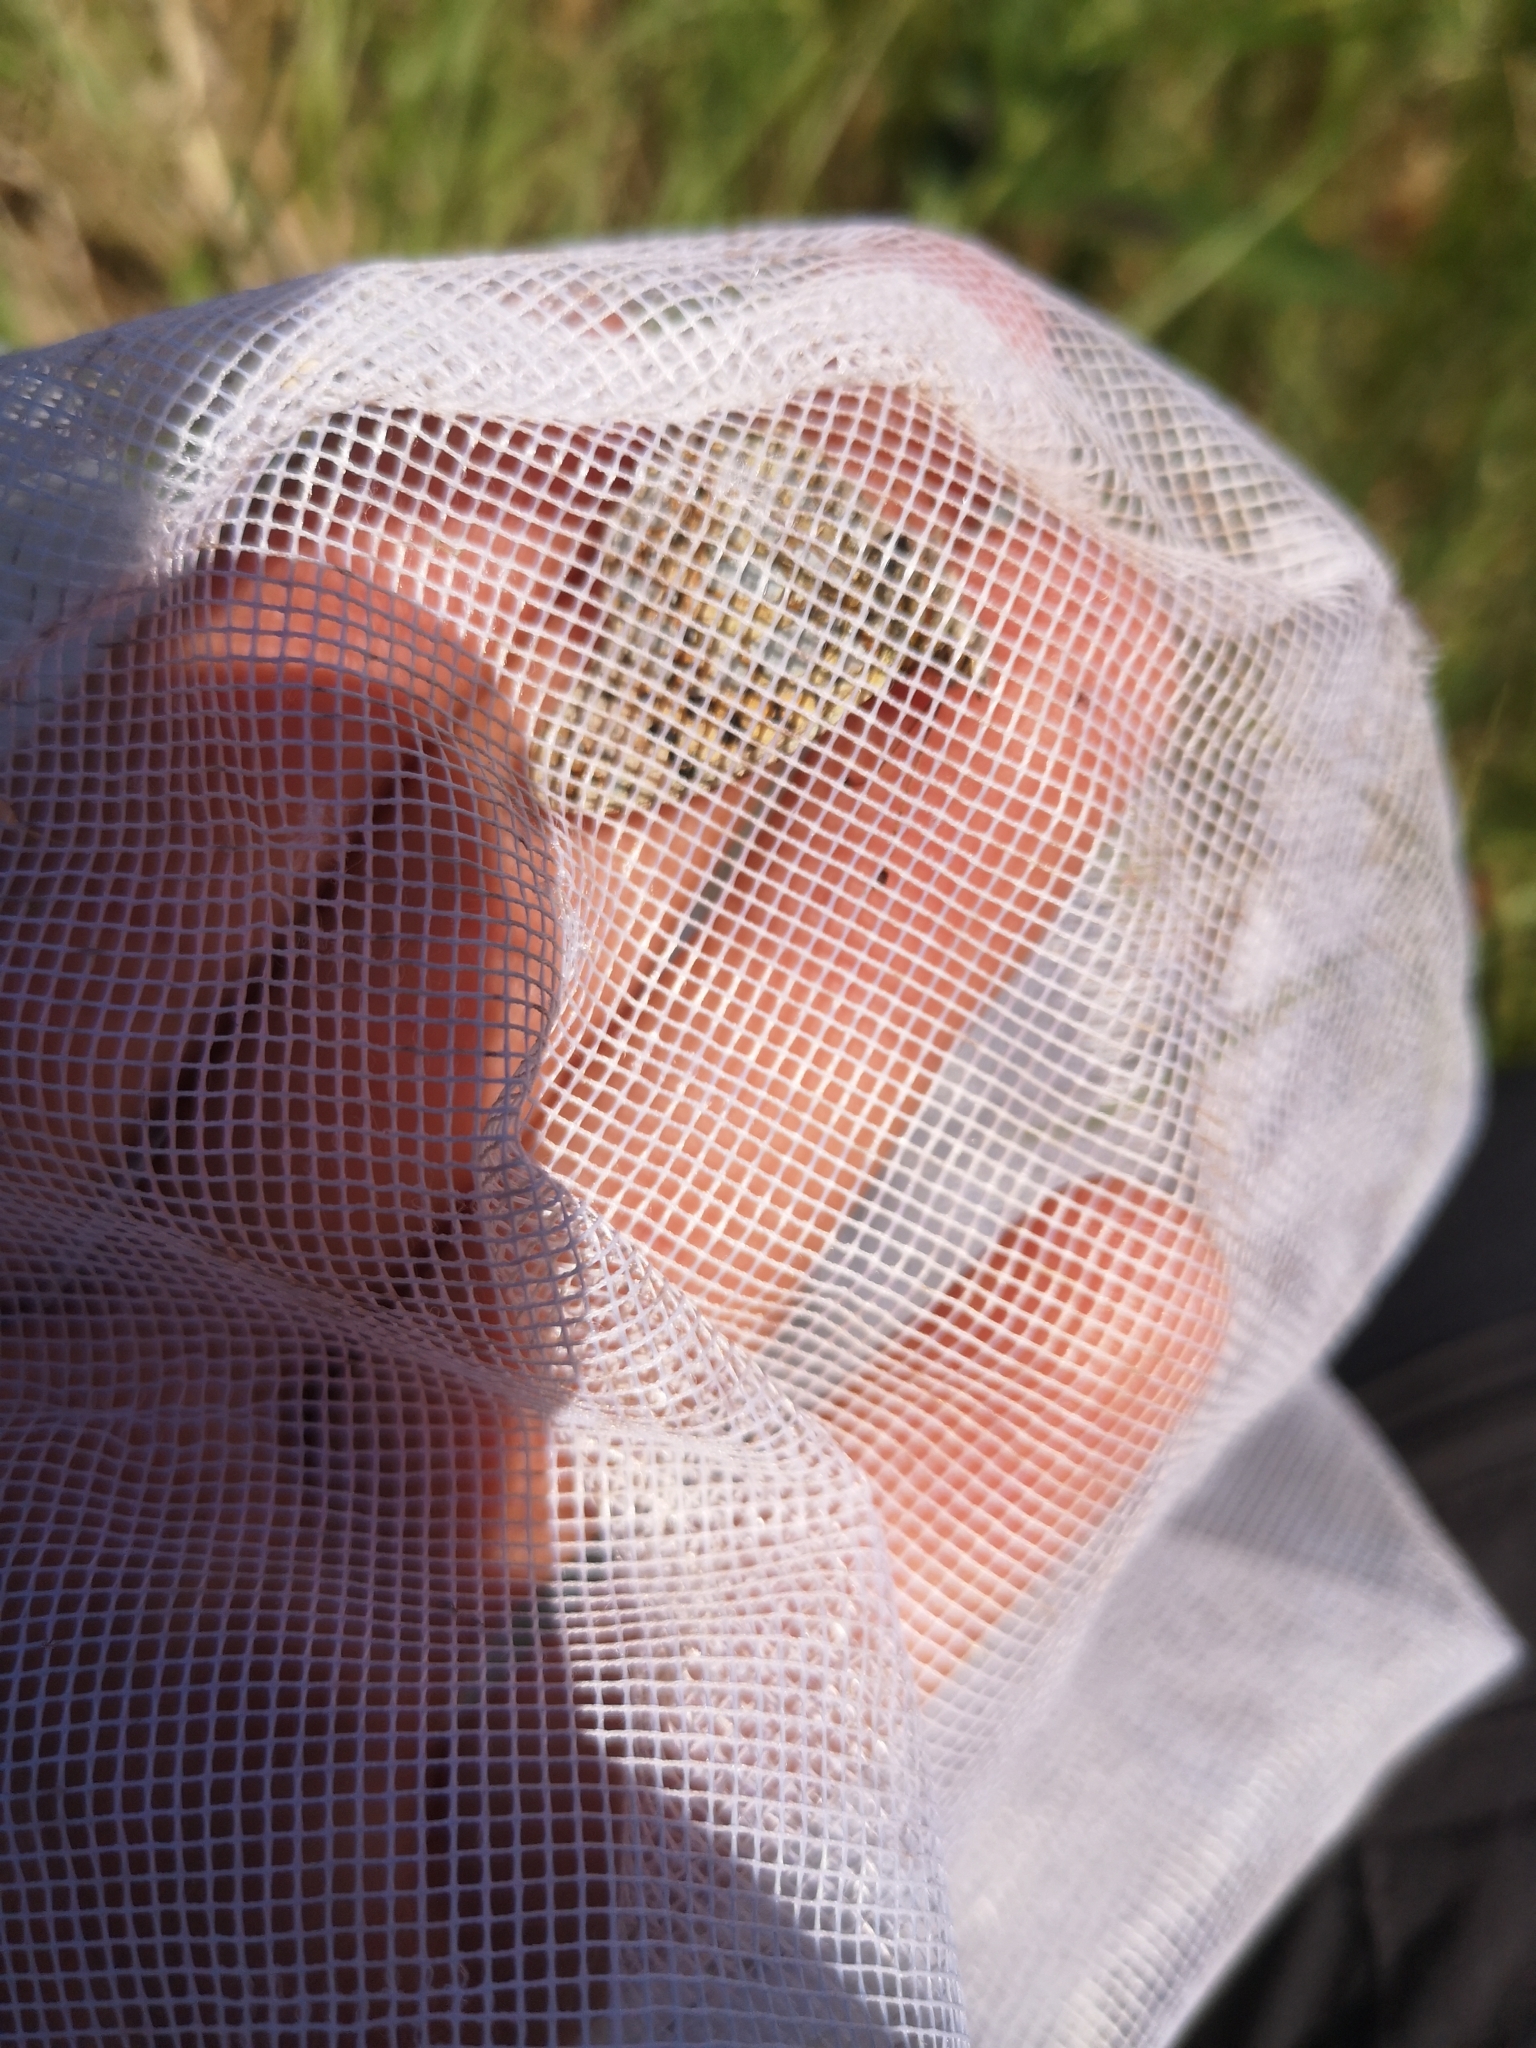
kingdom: Animalia
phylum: Arthropoda
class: Insecta
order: Lepidoptera
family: Nymphalidae
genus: Issoria
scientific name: Issoria lathonia
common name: Queen of spain fritillary
